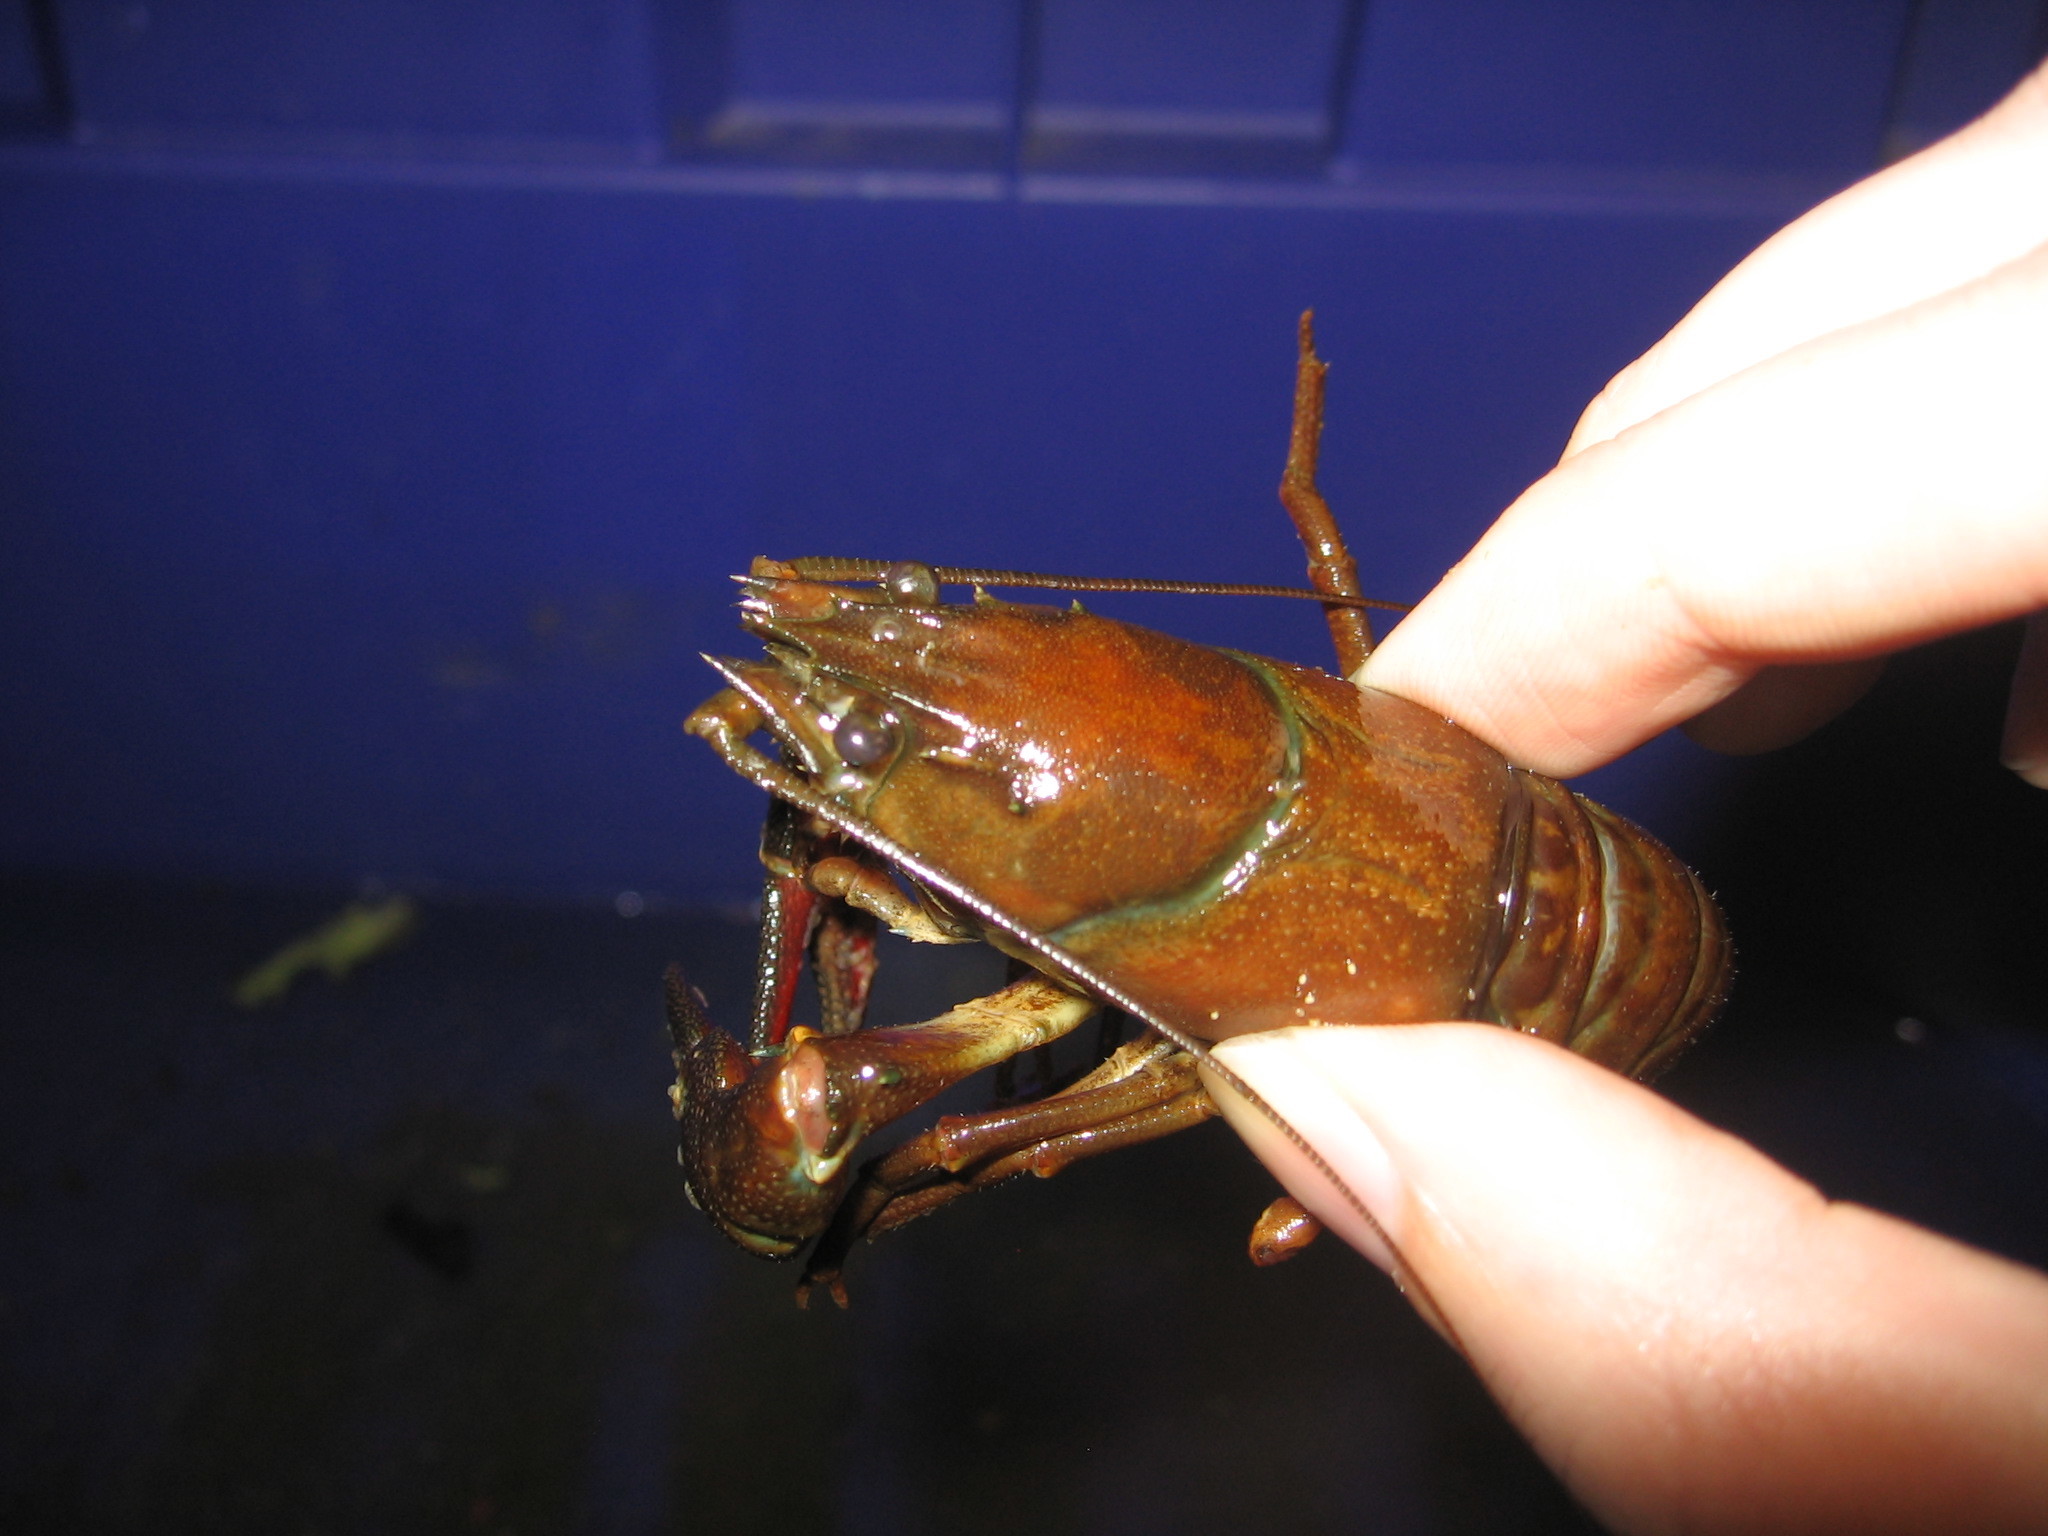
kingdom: Animalia
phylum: Arthropoda
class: Malacostraca
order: Decapoda
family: Astacidae
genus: Pacifastacus
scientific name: Pacifastacus leniusculus
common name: Signal crayfish
